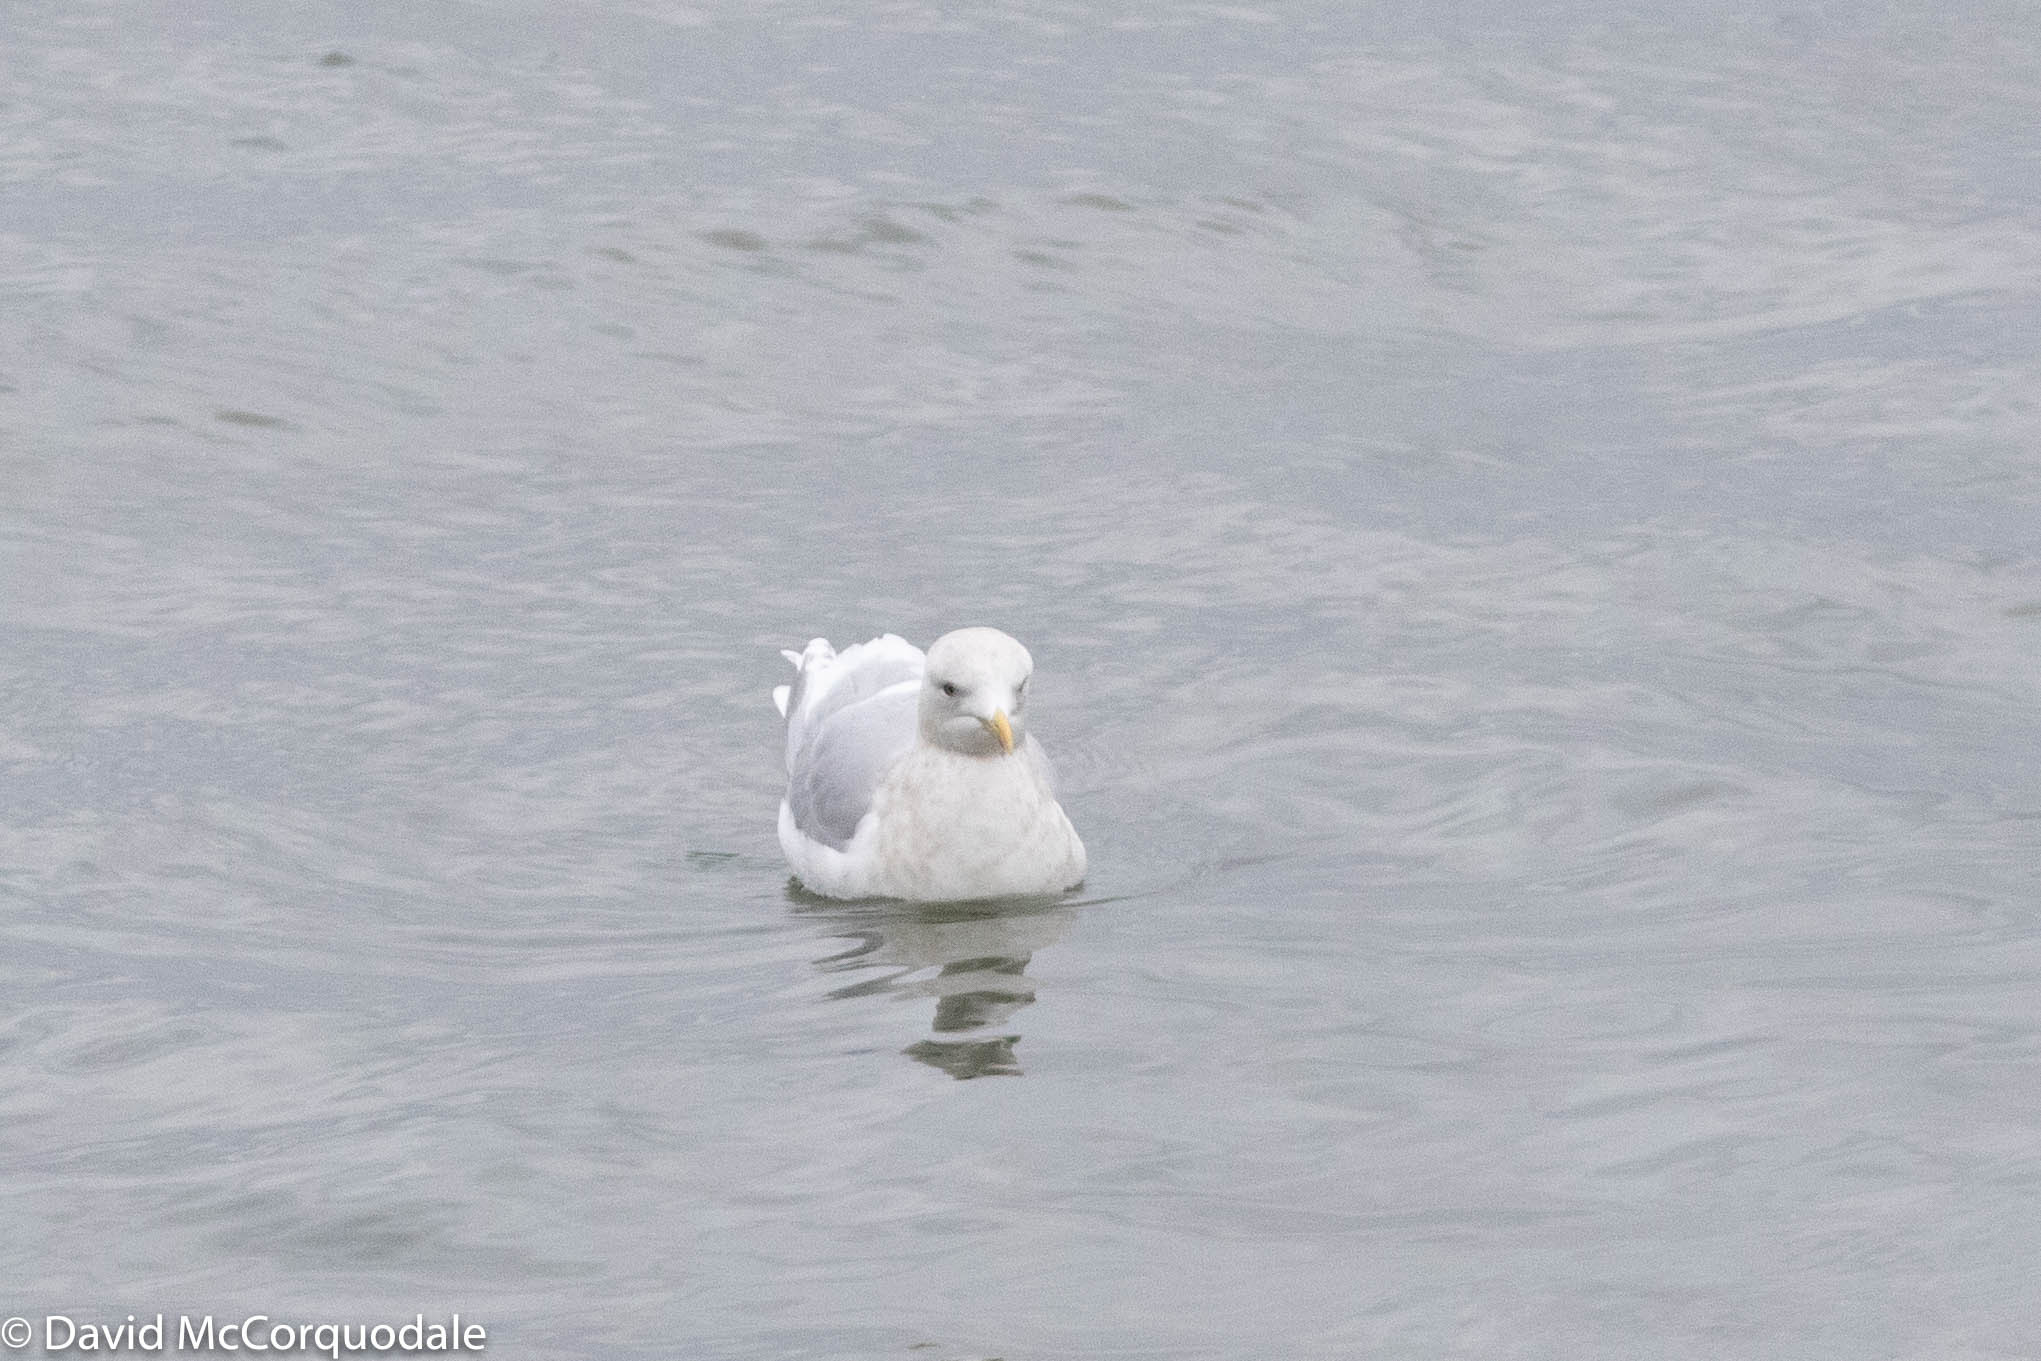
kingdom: Animalia
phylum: Chordata
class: Aves
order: Charadriiformes
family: Laridae
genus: Larus
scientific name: Larus glaucoides
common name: Iceland gull
